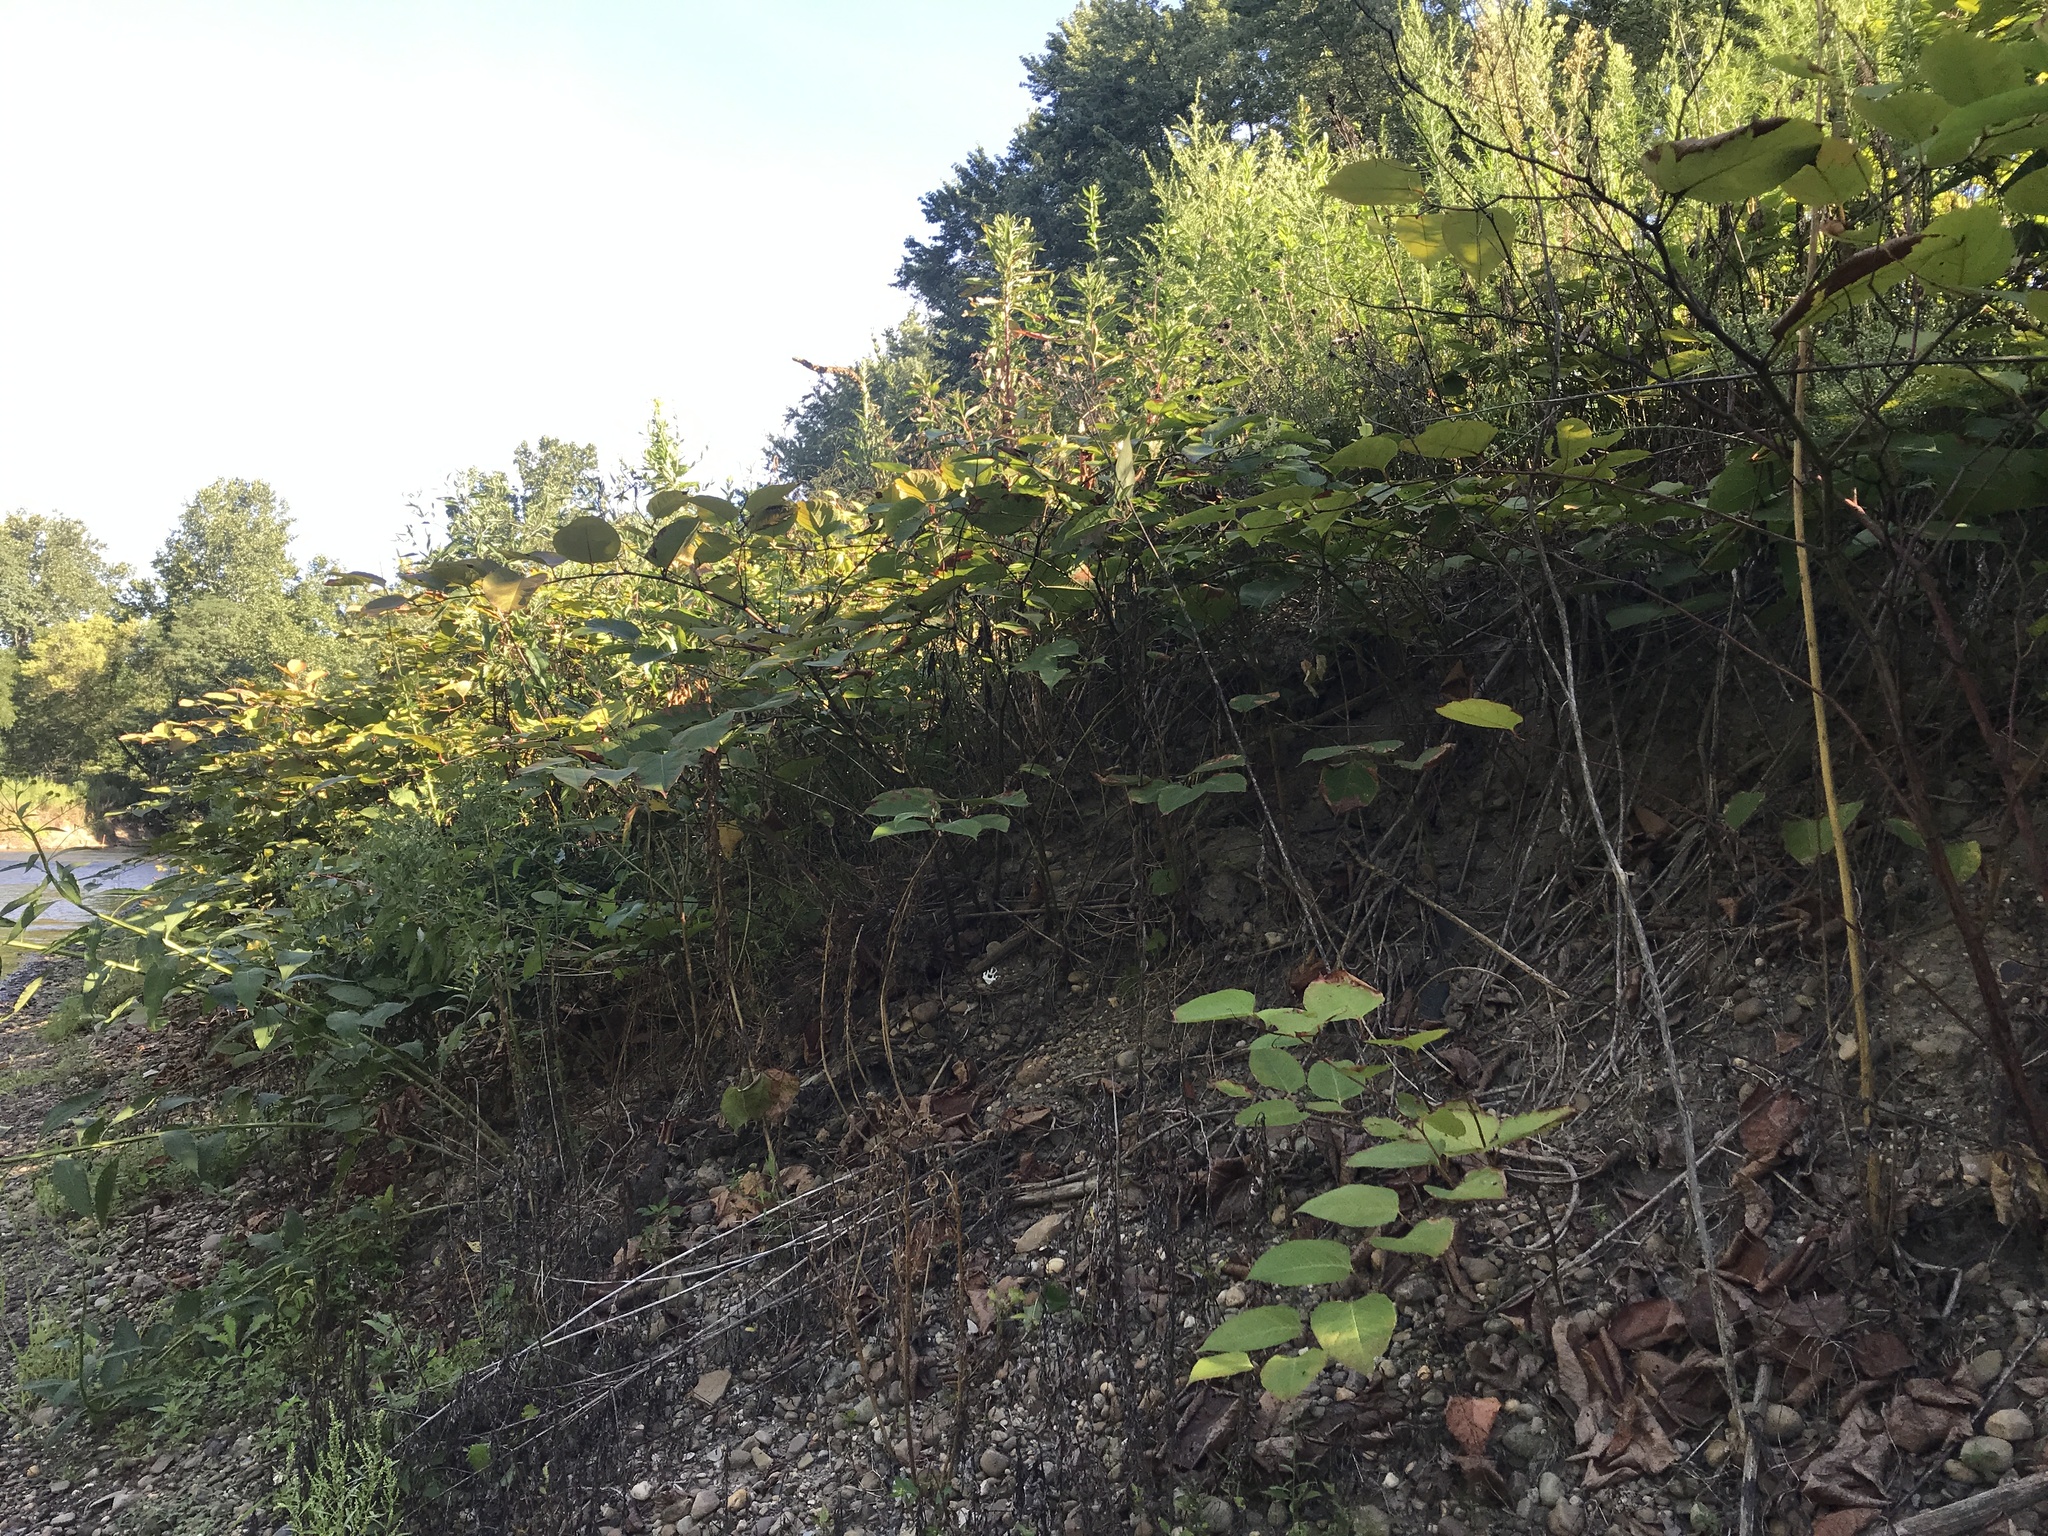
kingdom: Plantae
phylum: Tracheophyta
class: Magnoliopsida
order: Caryophyllales
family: Polygonaceae
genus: Reynoutria
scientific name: Reynoutria japonica
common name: Japanese knotweed
